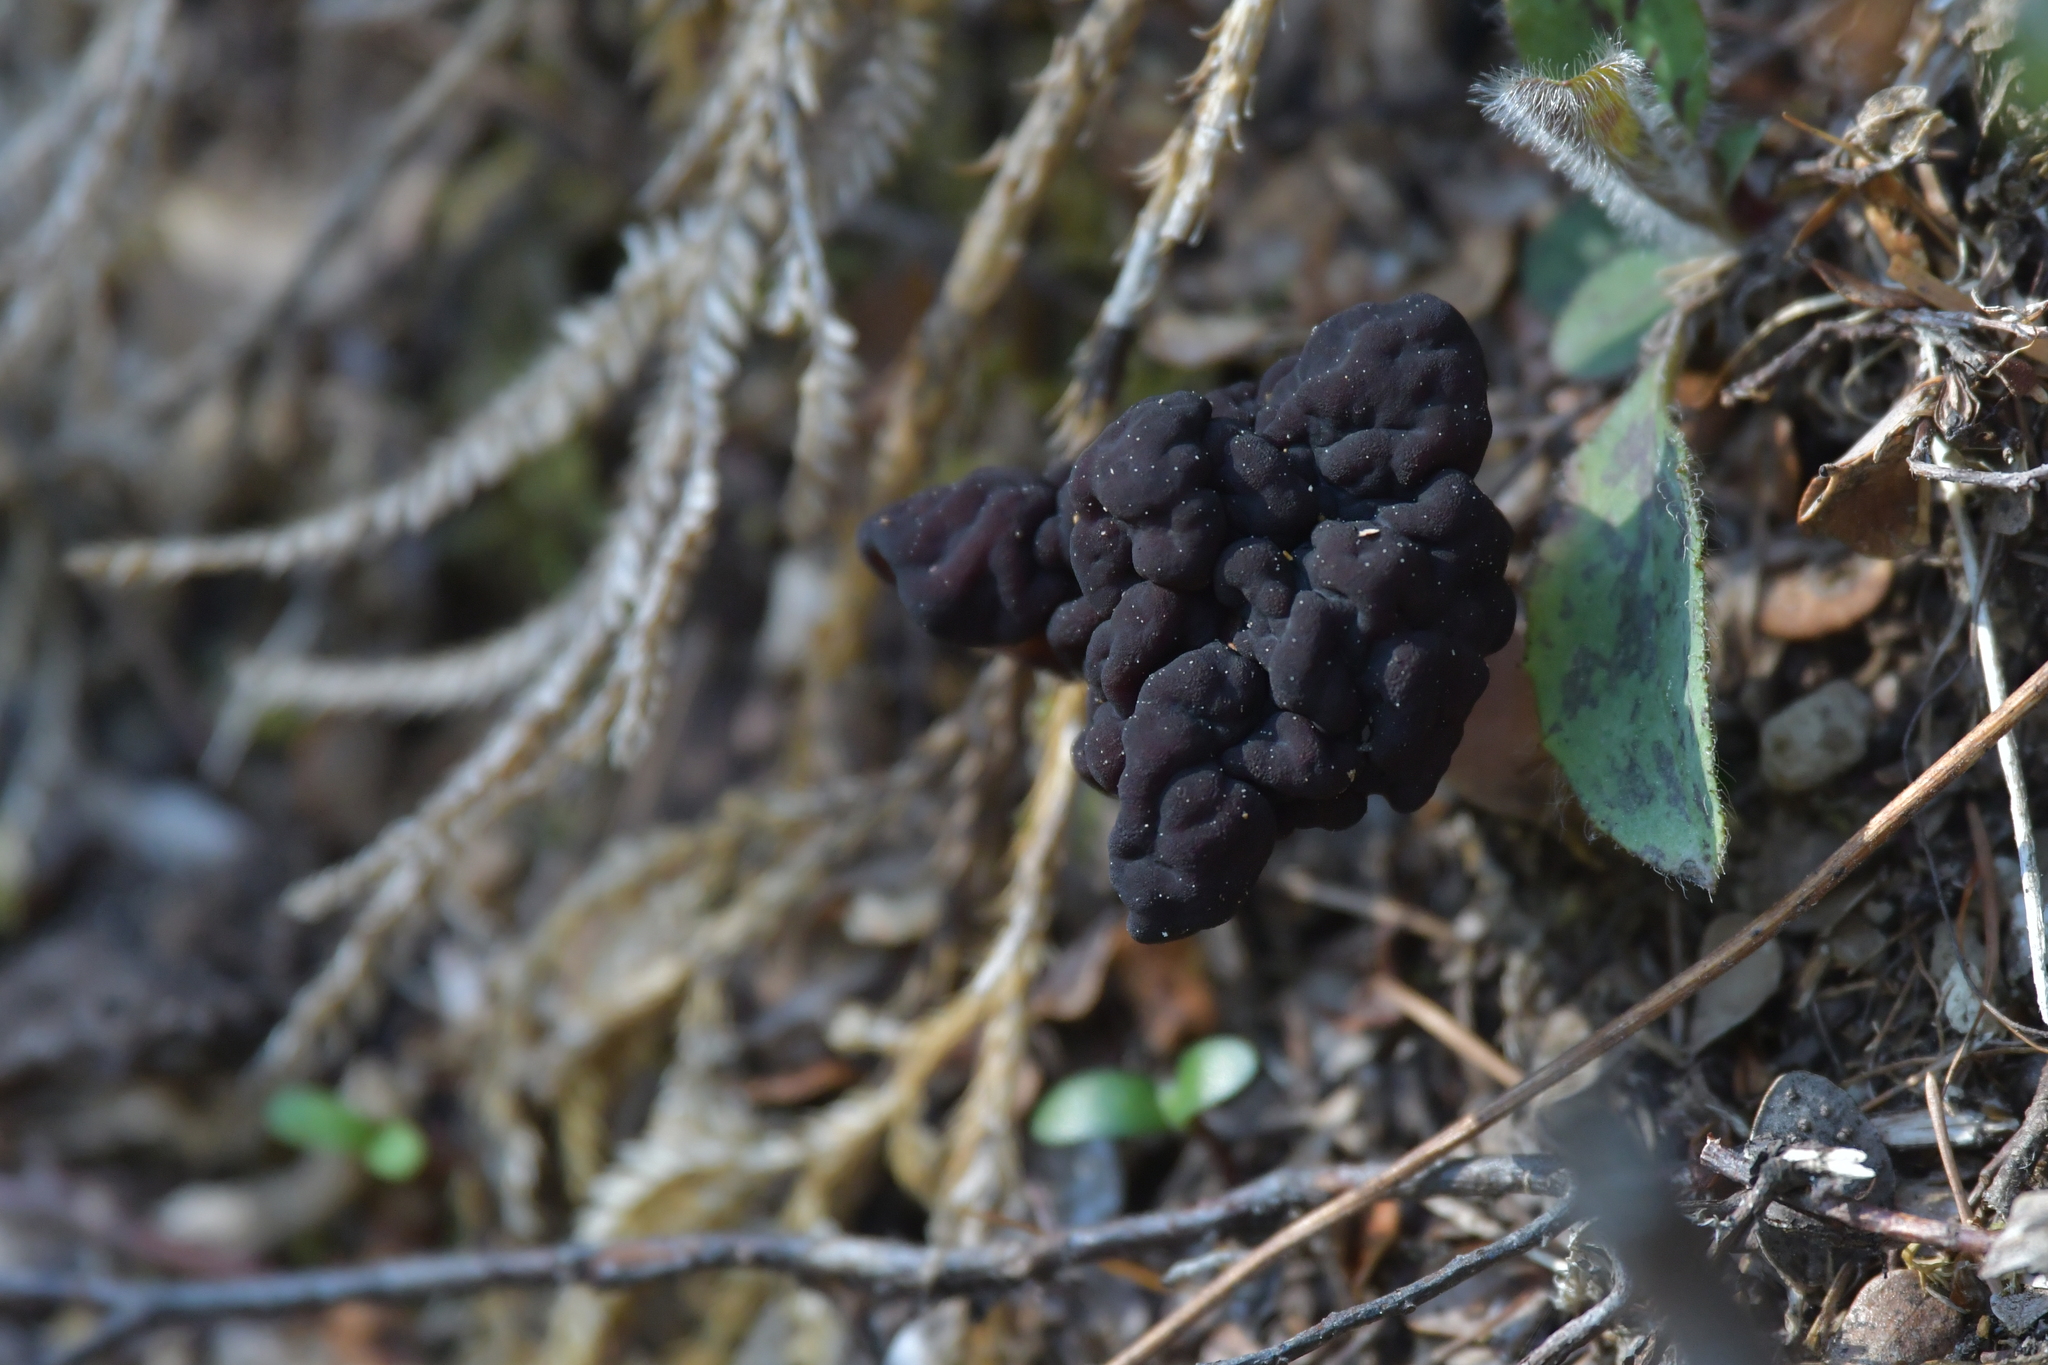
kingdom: Fungi
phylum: Ascomycota
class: Pezizomycetes
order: Pezizales
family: Discinaceae
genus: Gyromitra
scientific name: Gyromitra tasmanica
